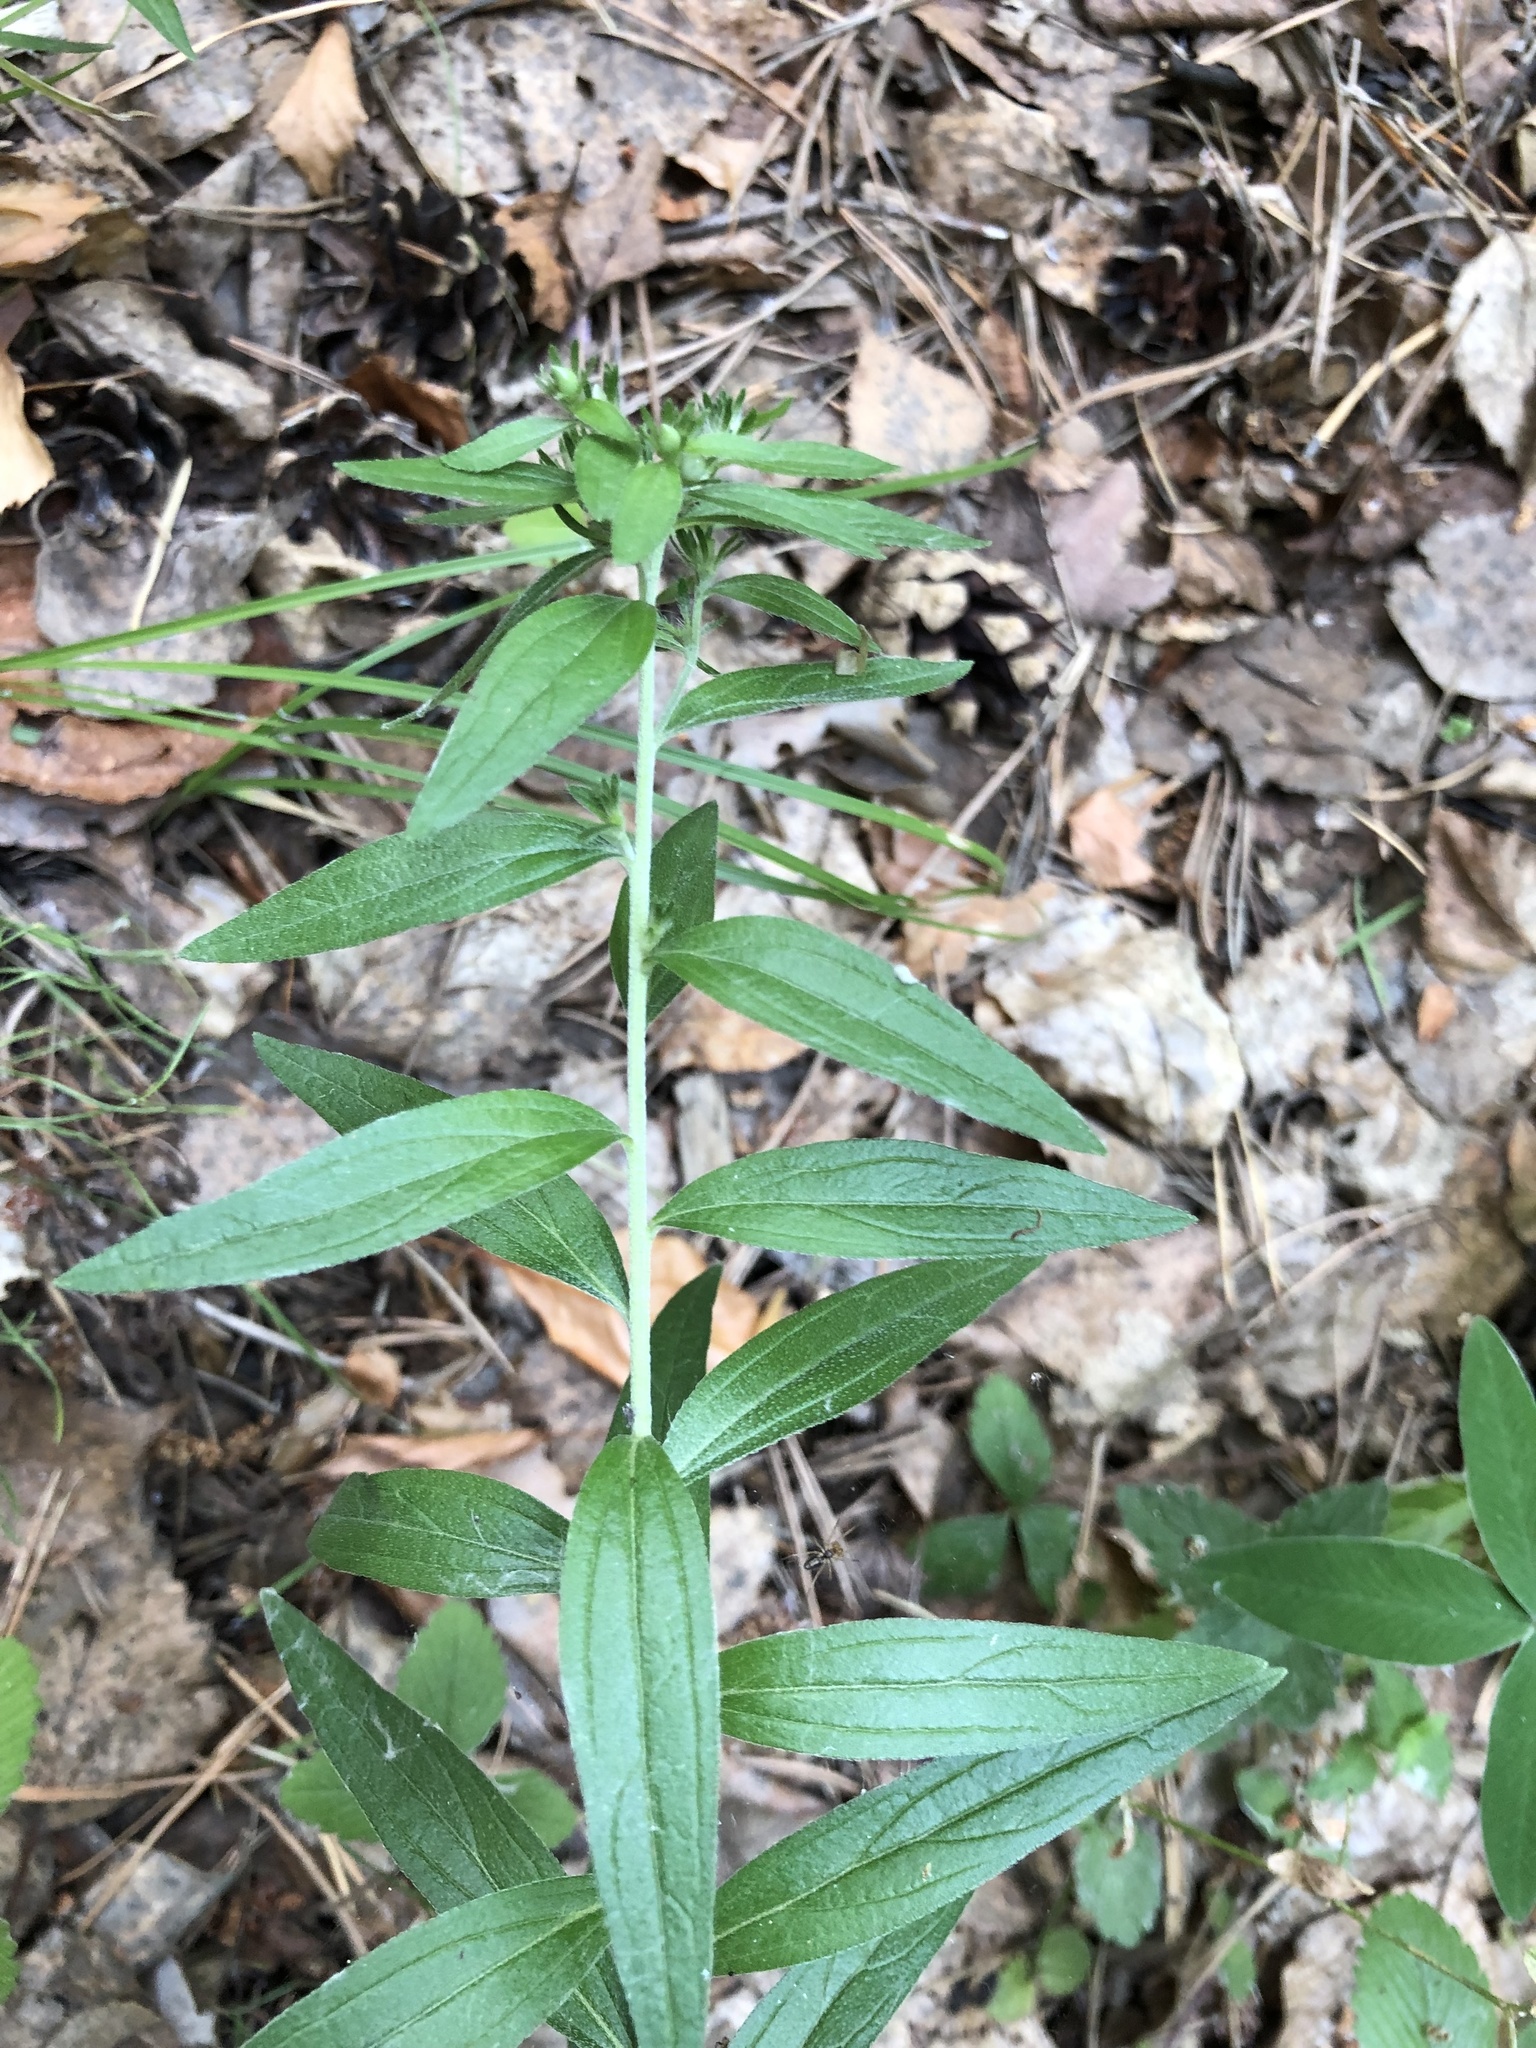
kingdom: Plantae
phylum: Tracheophyta
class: Magnoliopsida
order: Boraginales
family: Boraginaceae
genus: Lithospermum
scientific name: Lithospermum officinale
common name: Common gromwell
